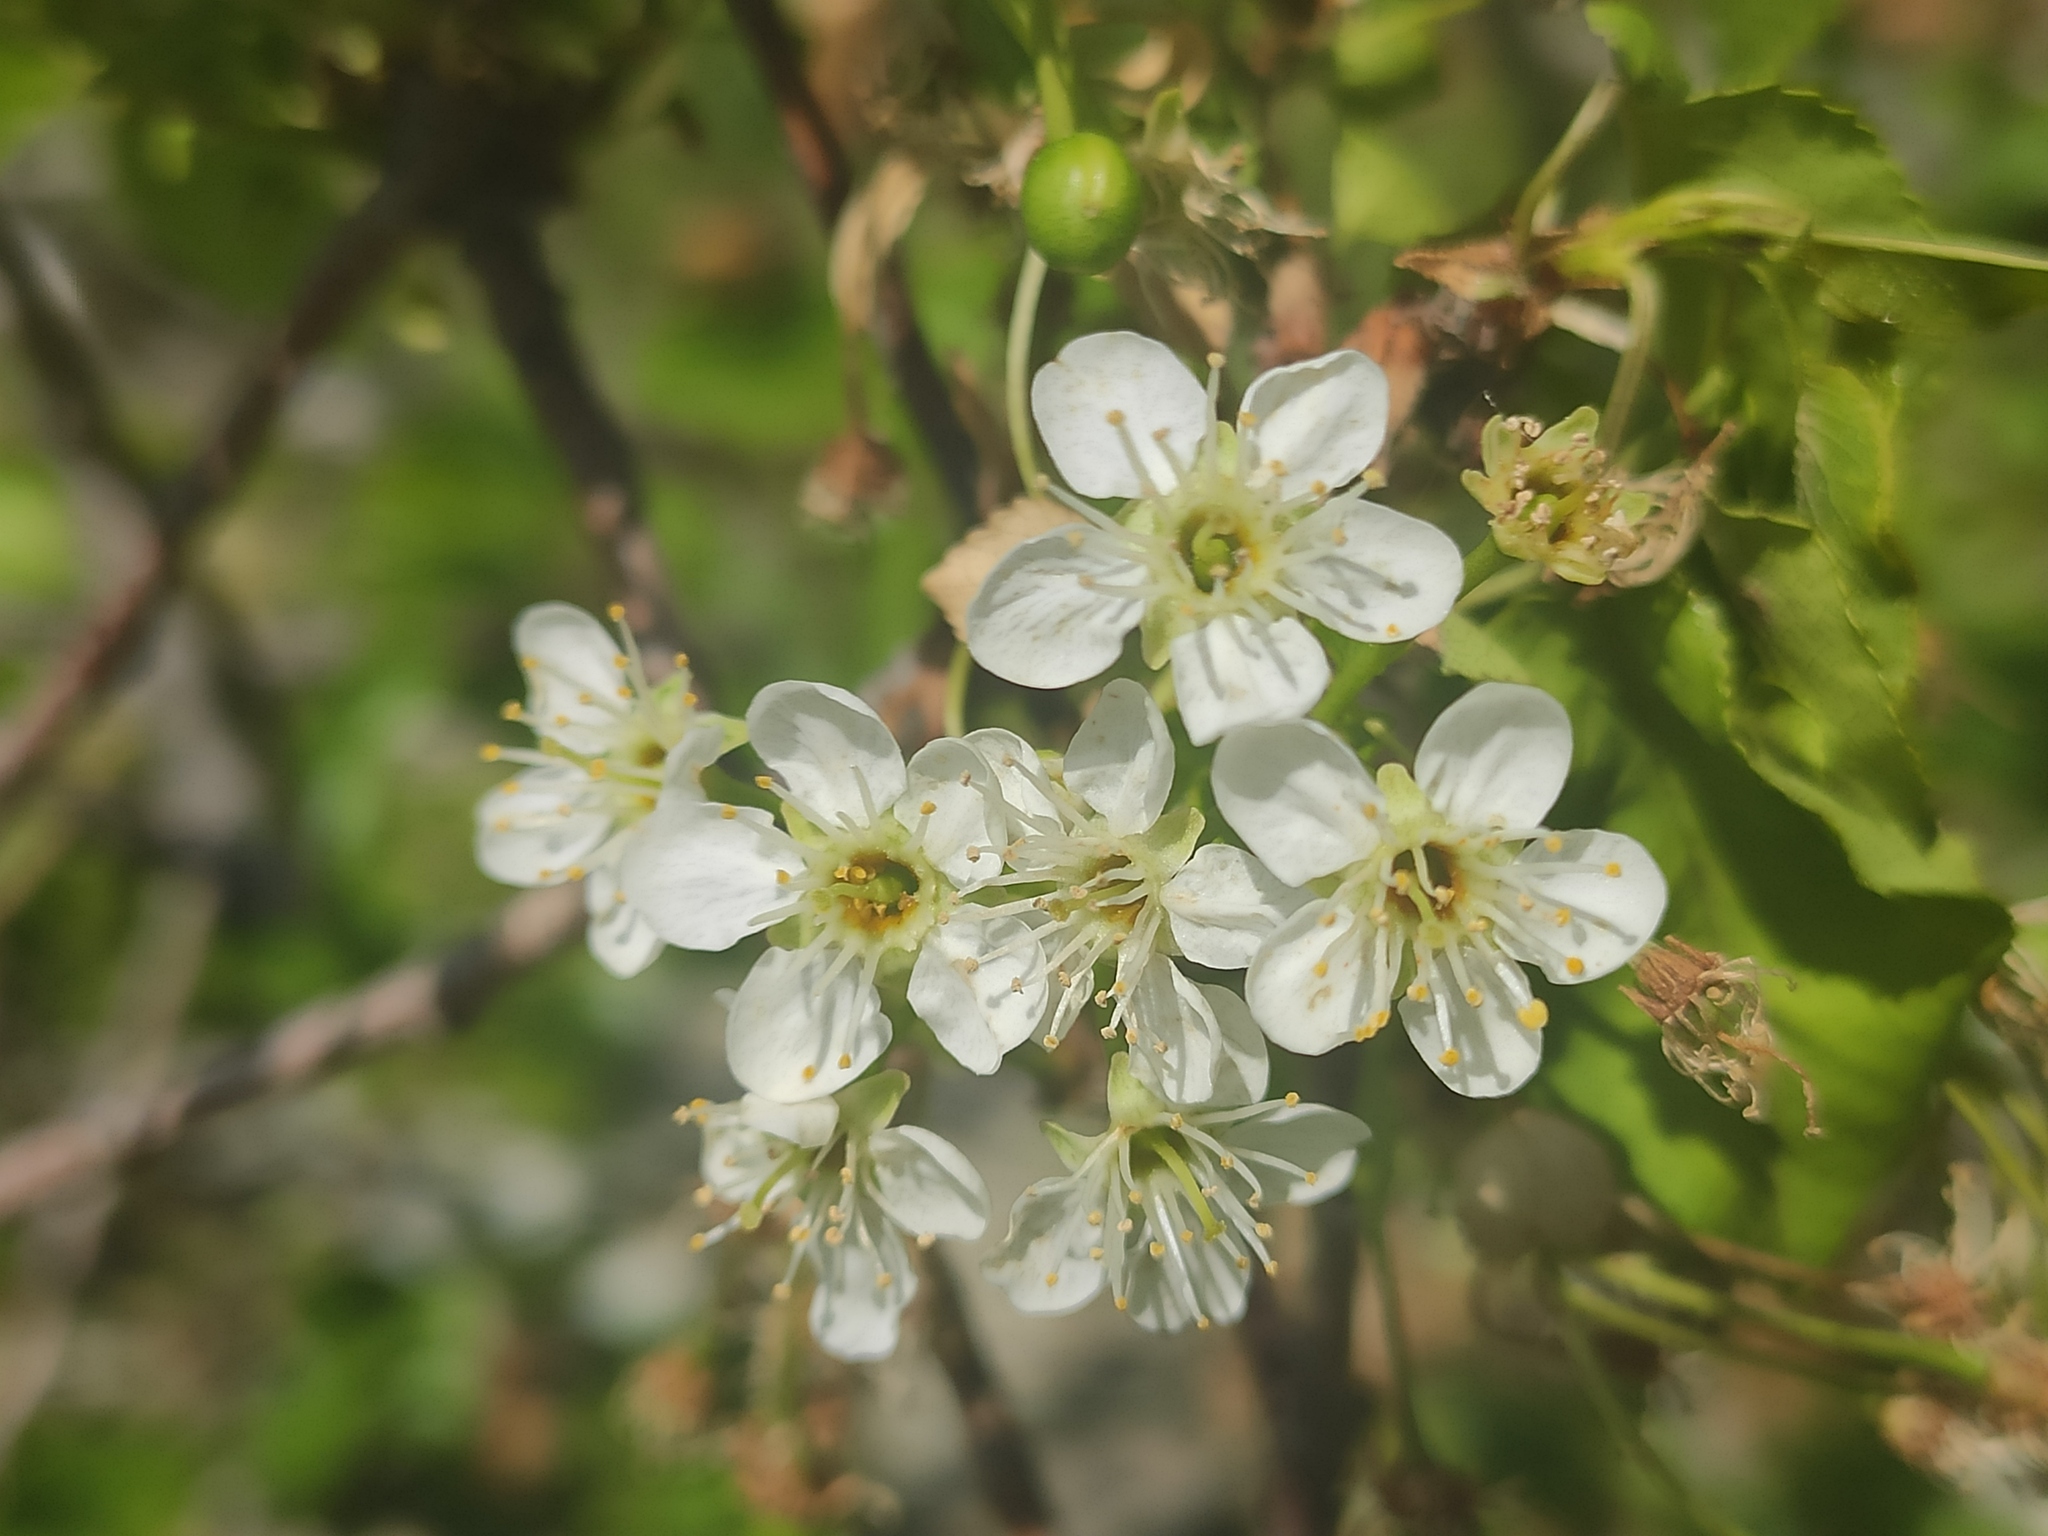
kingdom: Plantae
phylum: Tracheophyta
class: Magnoliopsida
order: Rosales
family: Rosaceae
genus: Prunus
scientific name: Prunus mahaleb
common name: Mahaleb cherry
